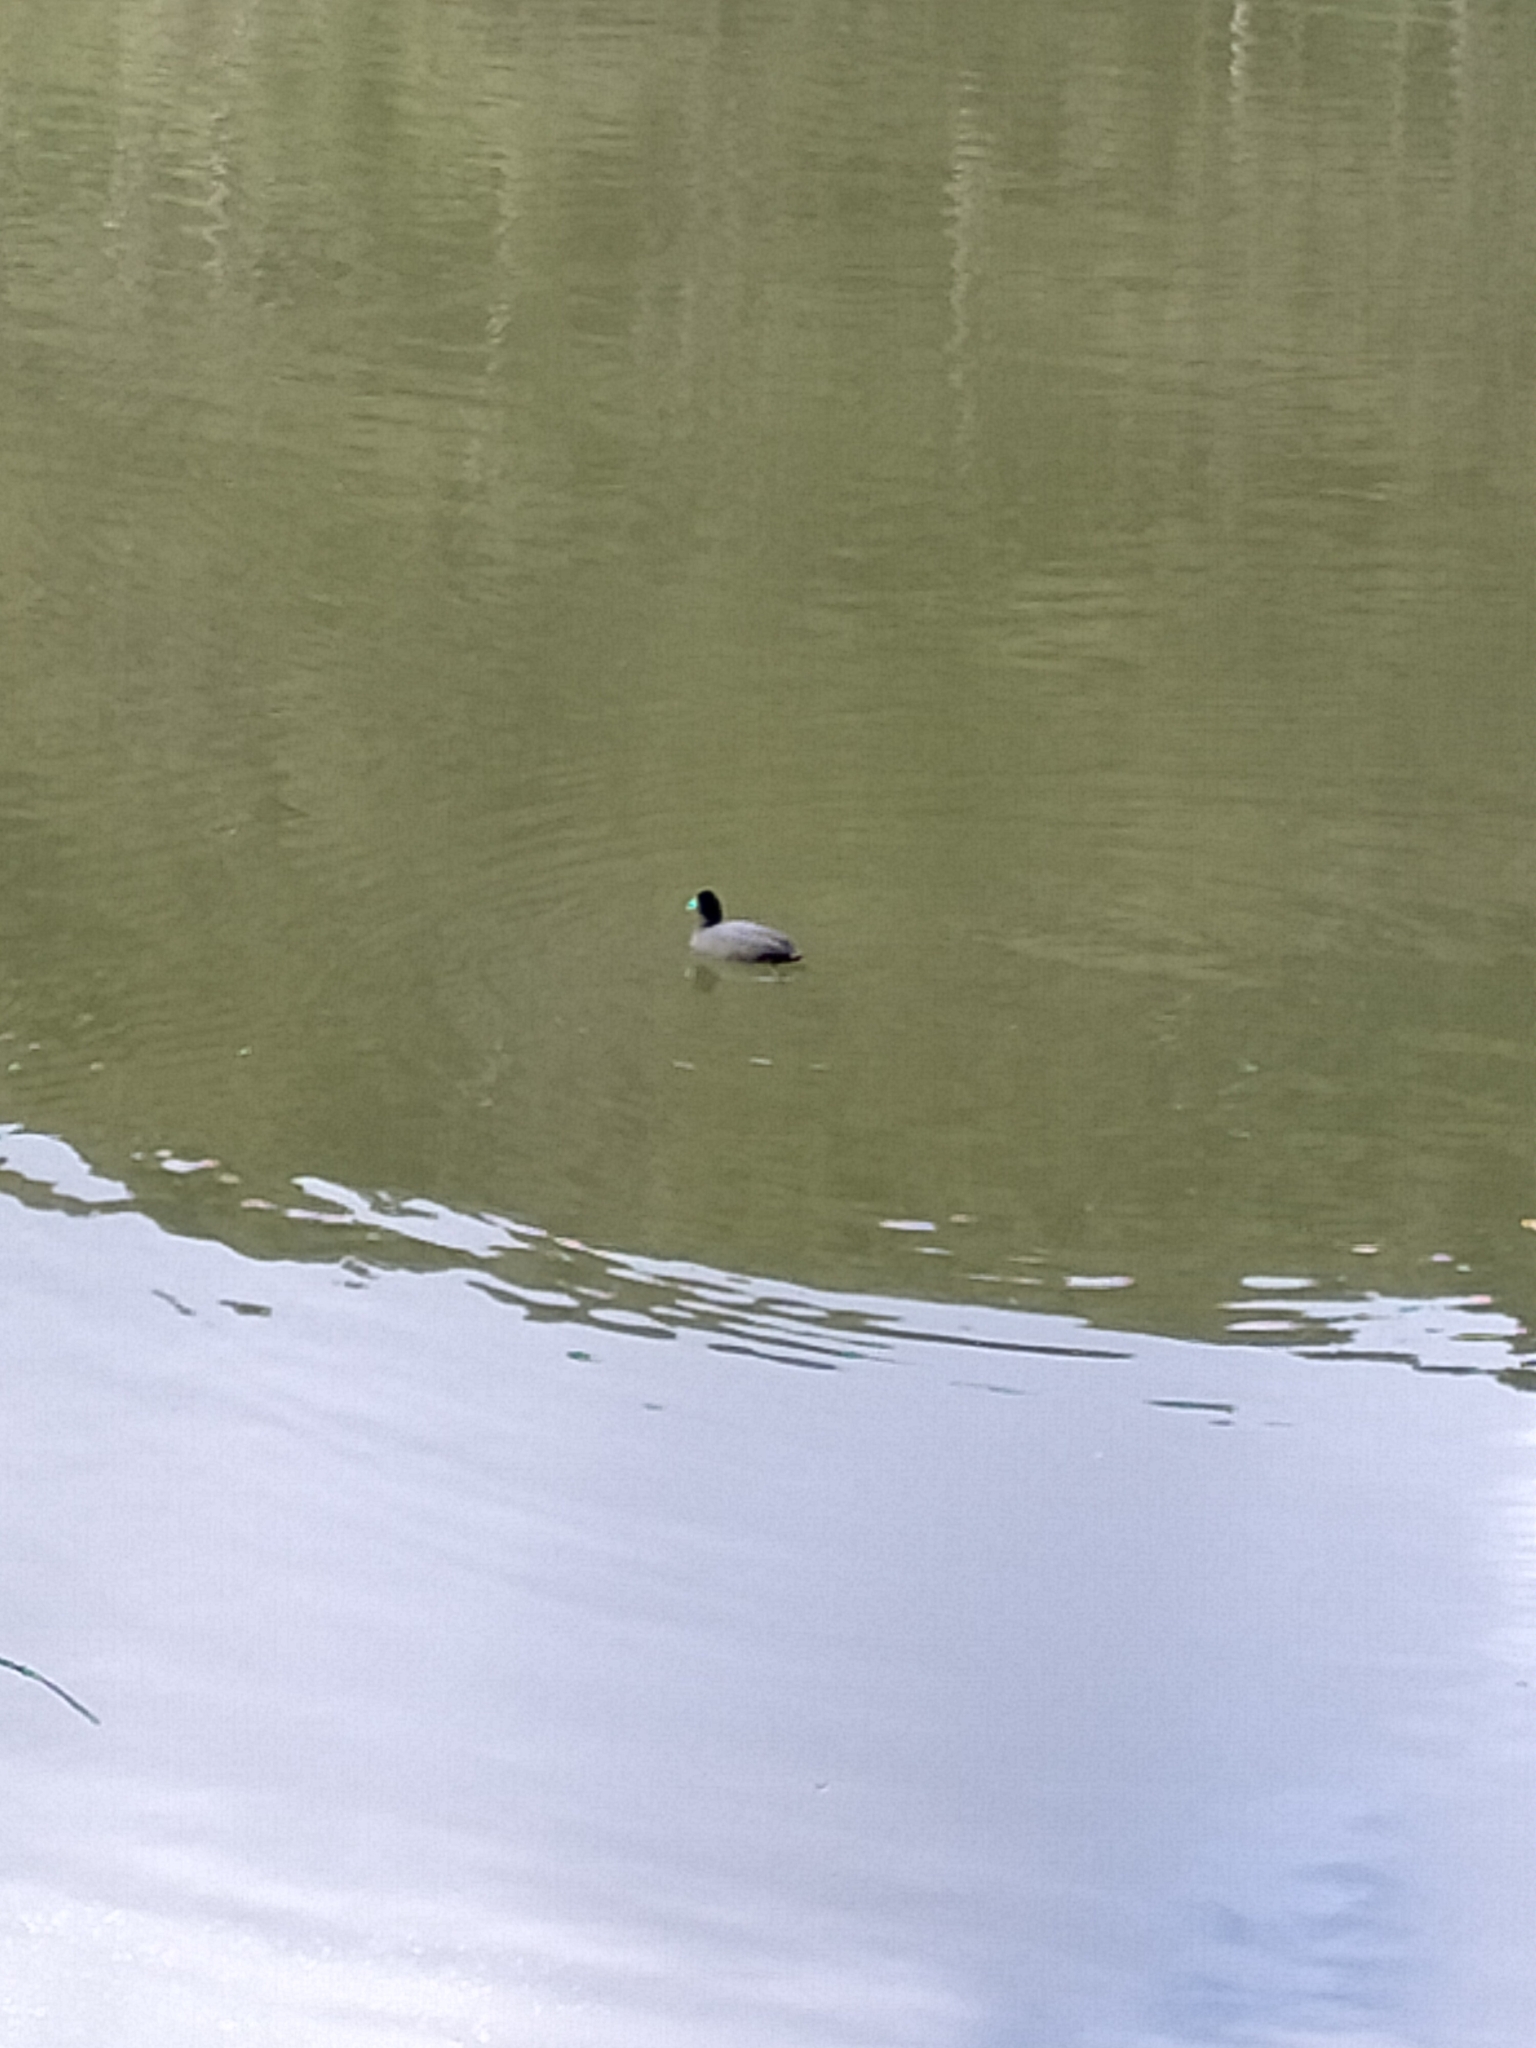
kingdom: Animalia
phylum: Chordata
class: Aves
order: Gruiformes
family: Rallidae
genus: Fulica
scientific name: Fulica atra
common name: Eurasian coot
